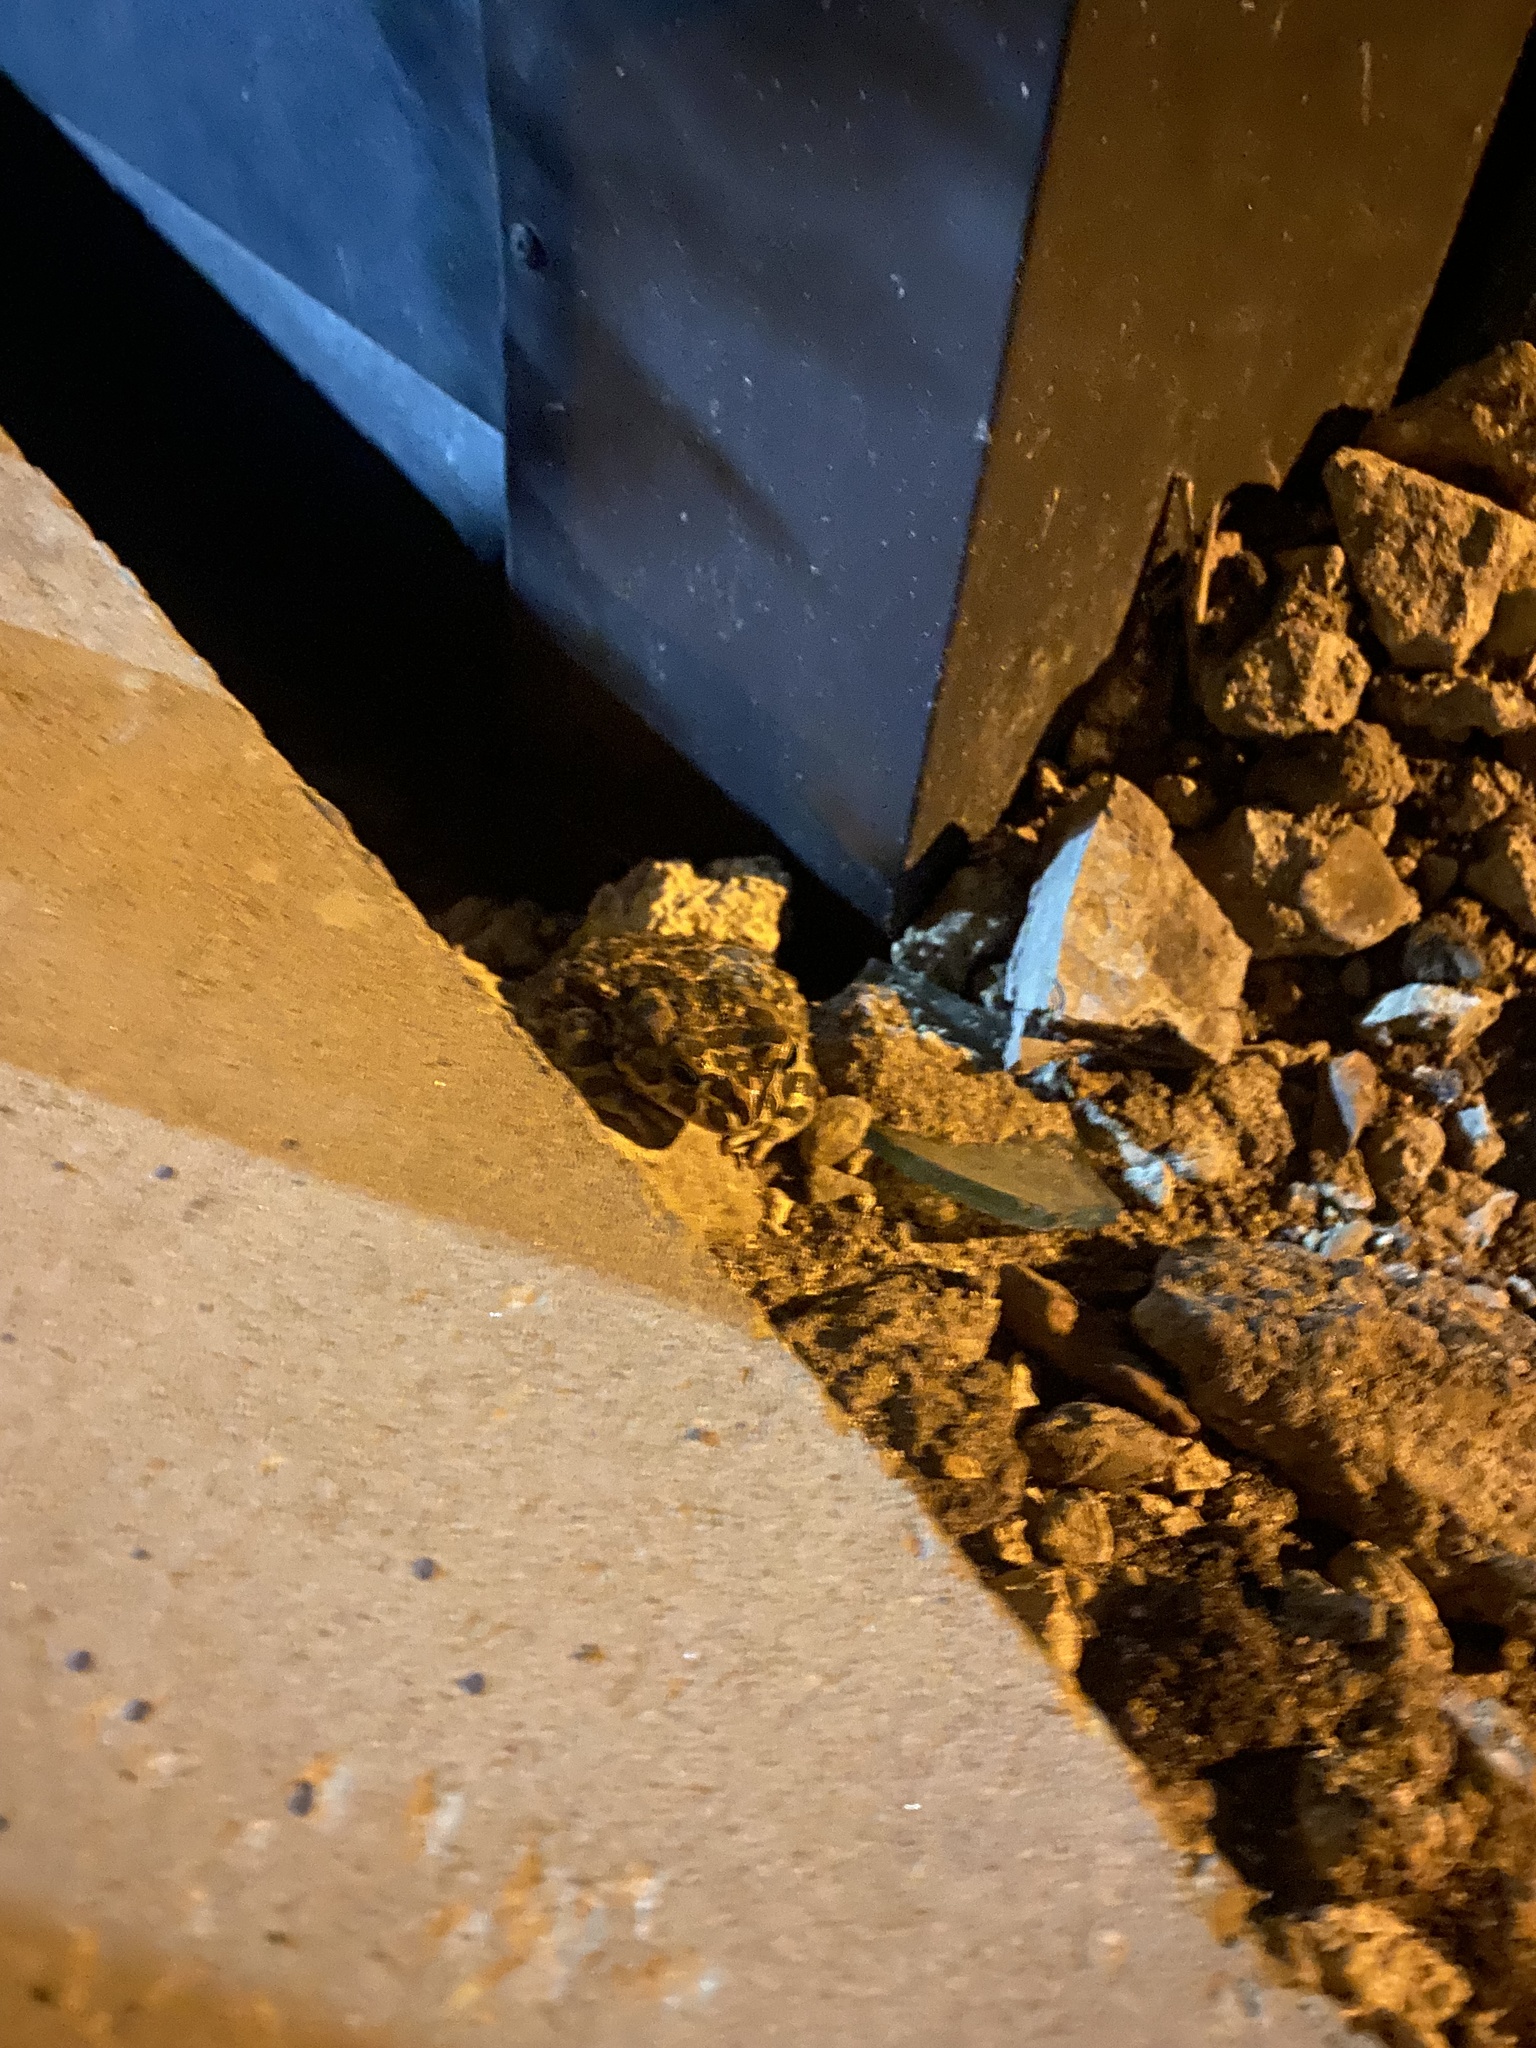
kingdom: Animalia
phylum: Chordata
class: Amphibia
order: Anura
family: Bufonidae
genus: Bufotes
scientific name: Bufotes viridis
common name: European green toad
